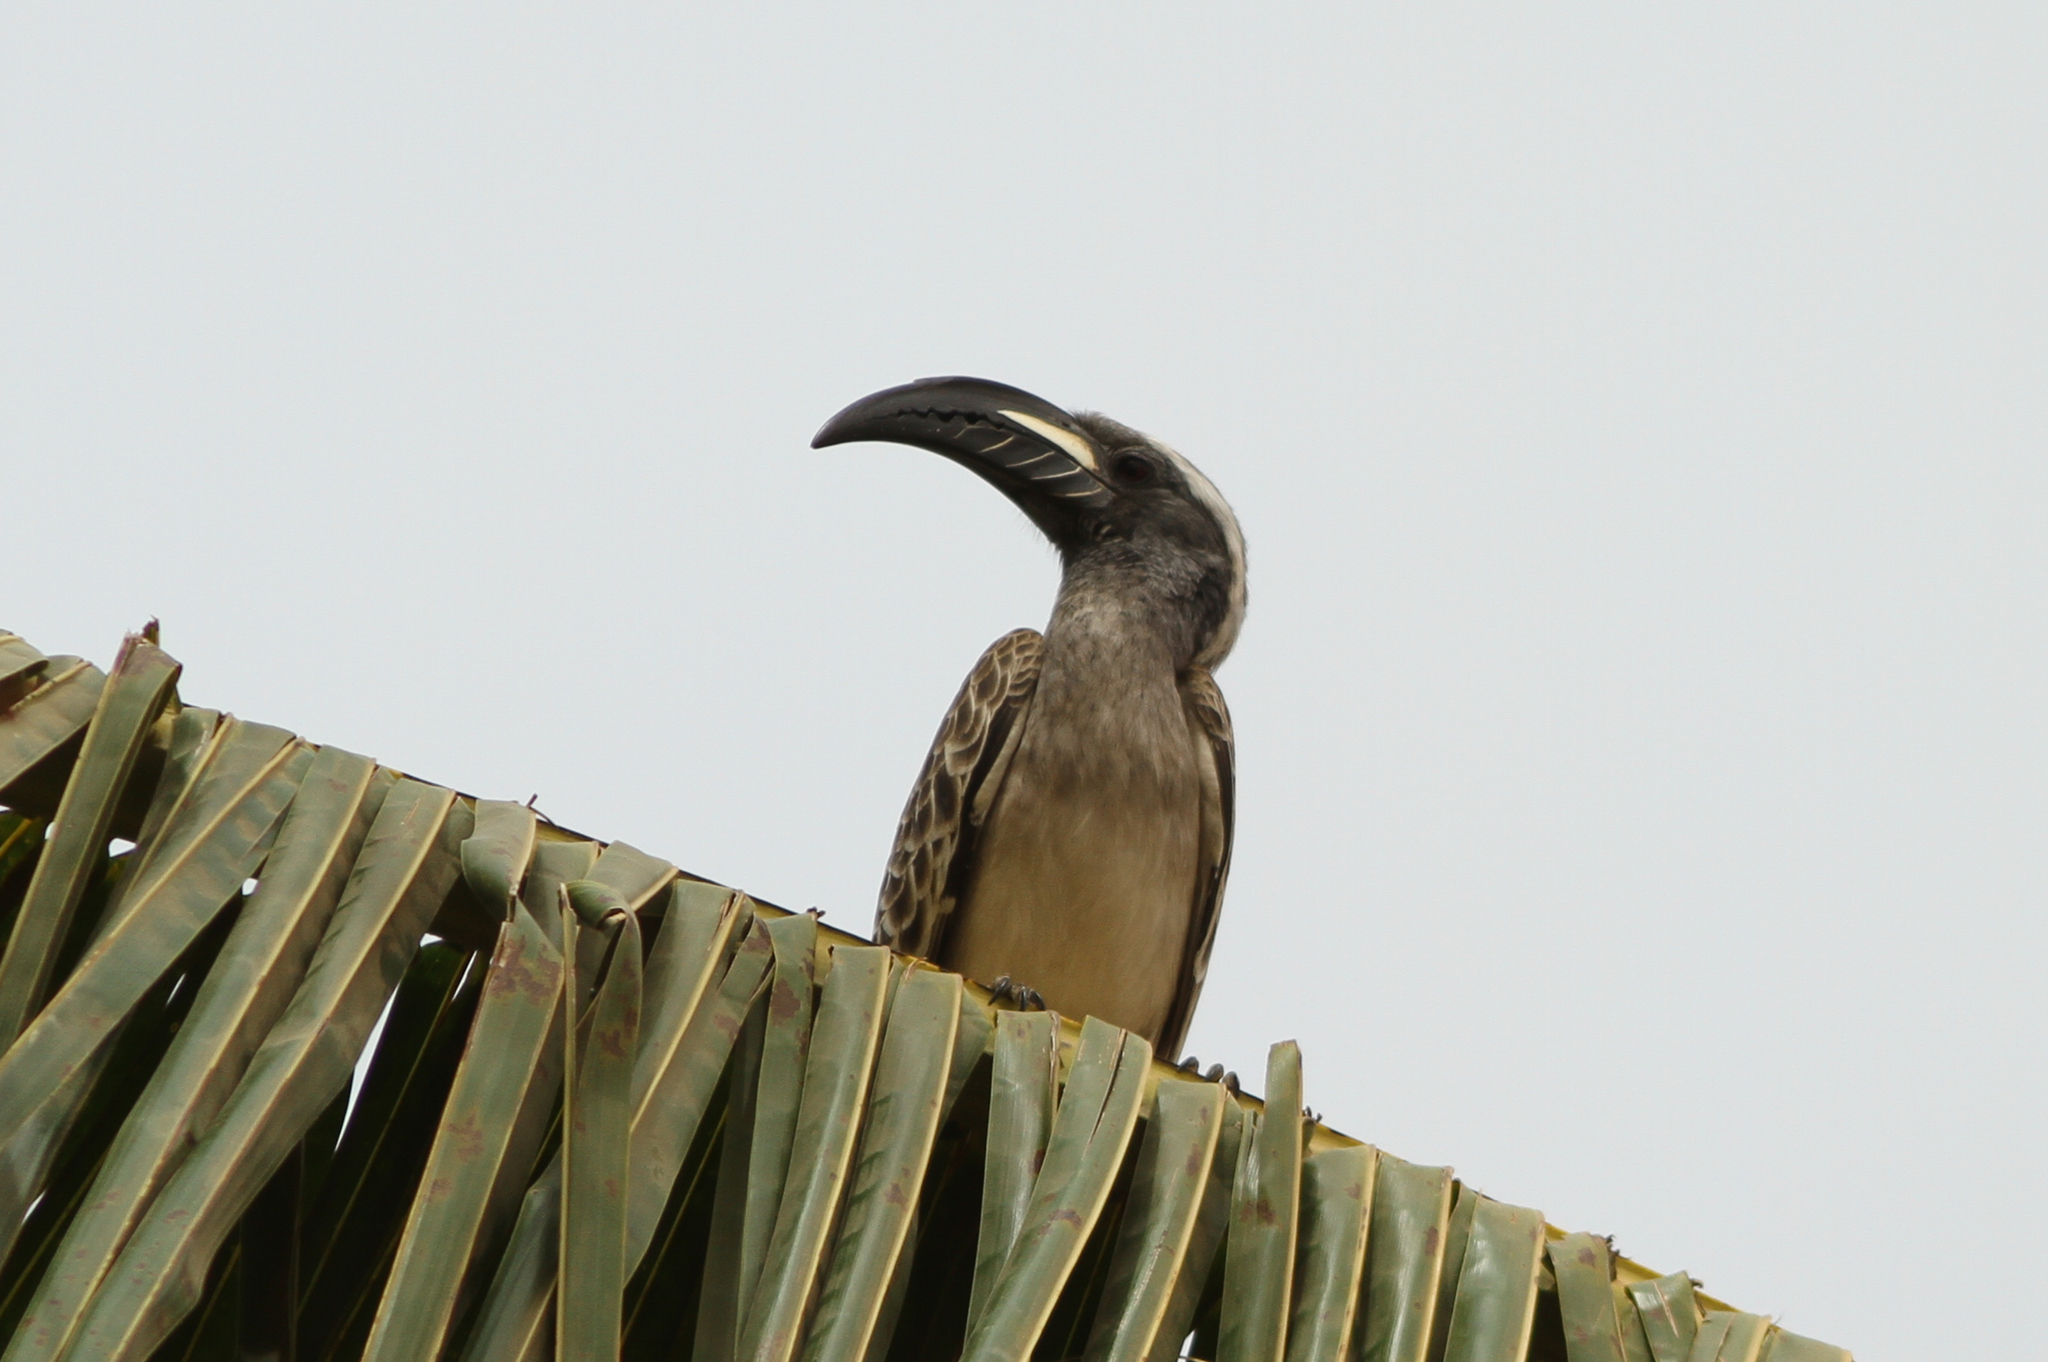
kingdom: Animalia
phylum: Chordata
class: Aves
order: Bucerotiformes
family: Bucerotidae
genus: Lophoceros
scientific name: Lophoceros nasutus
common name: African grey hornbill
